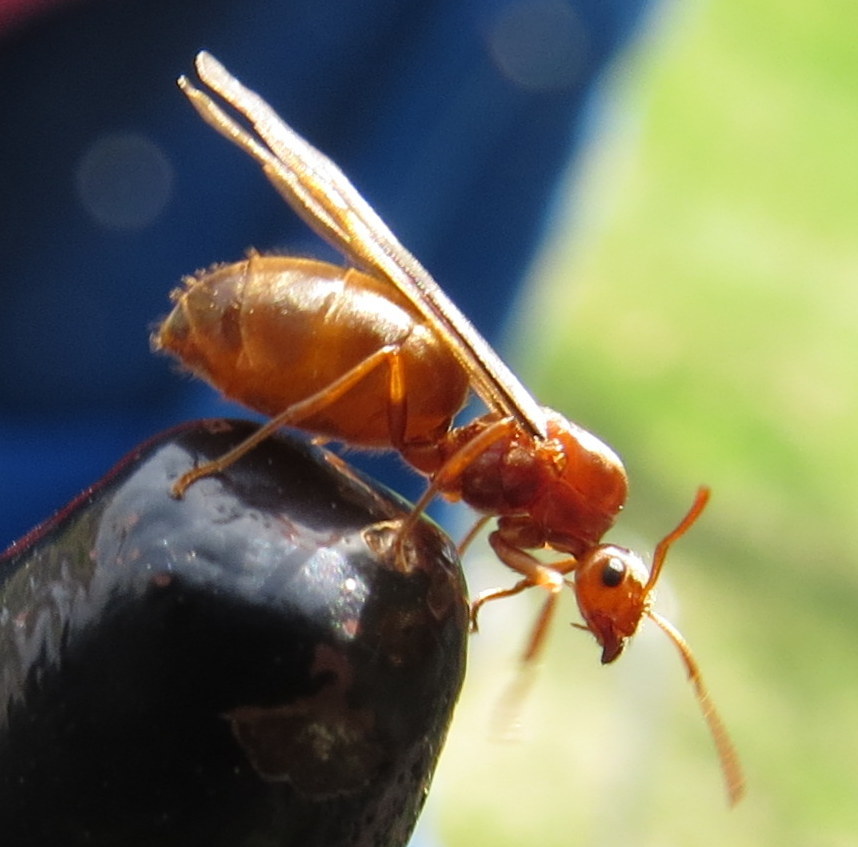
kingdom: Animalia
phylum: Arthropoda
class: Insecta
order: Hymenoptera
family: Formicidae
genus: Prenolepis
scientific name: Prenolepis imparis
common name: Small honey ant
